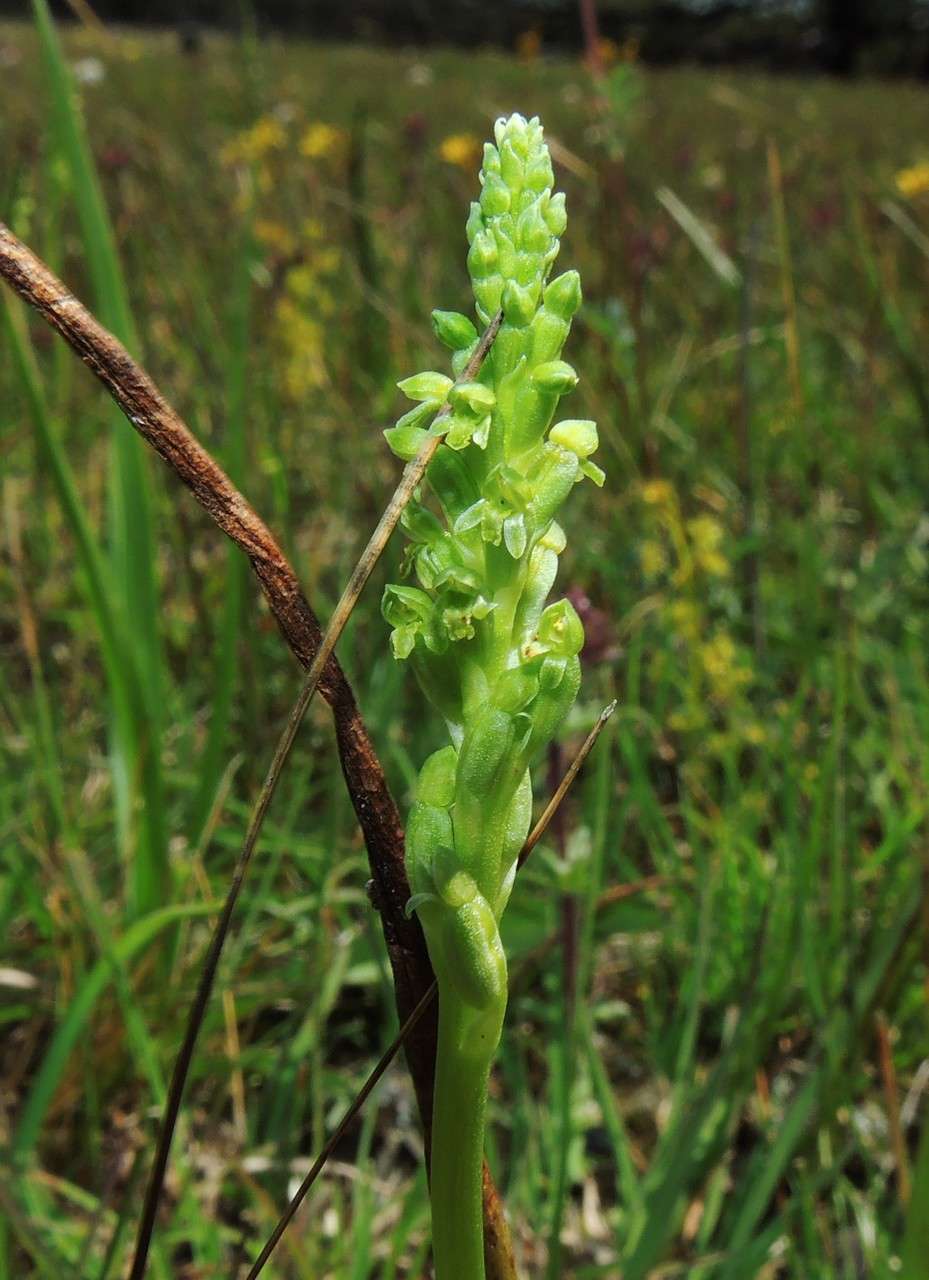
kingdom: Plantae
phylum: Tracheophyta
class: Liliopsida
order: Asparagales
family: Orchidaceae
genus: Microtis
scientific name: Microtis unifolia
